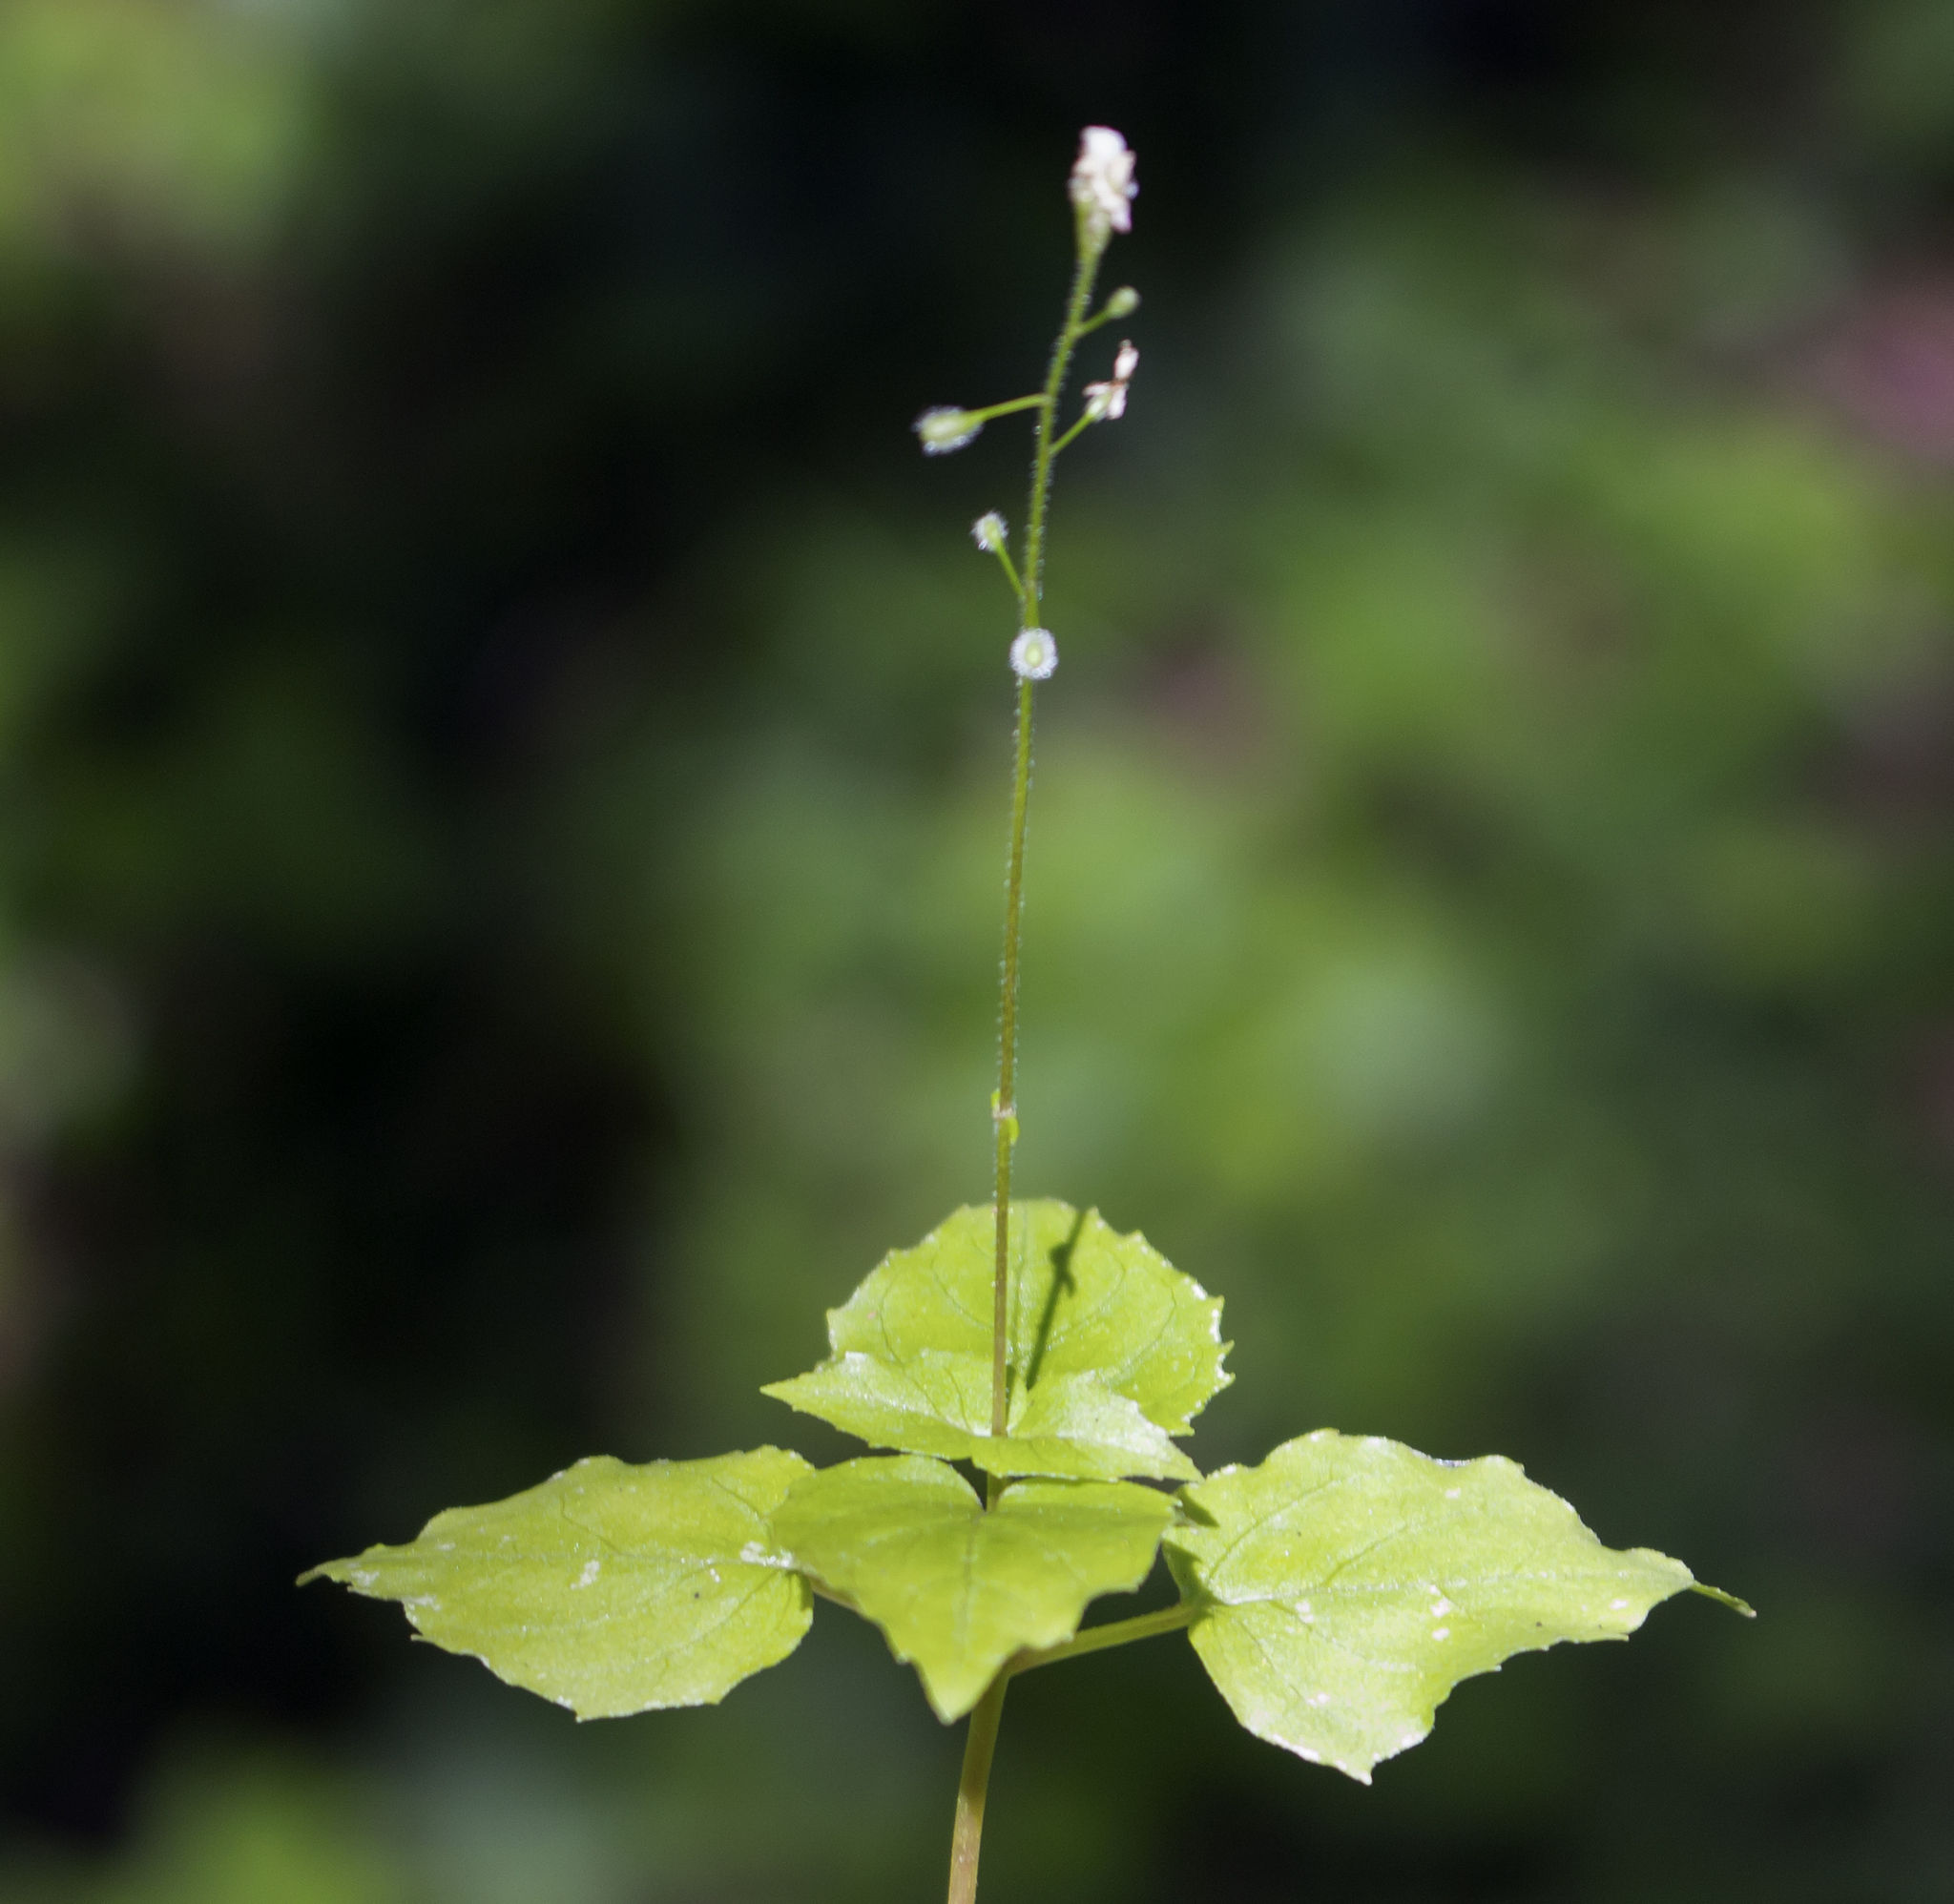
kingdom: Plantae
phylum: Tracheophyta
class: Magnoliopsida
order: Myrtales
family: Onagraceae
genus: Circaea
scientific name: Circaea alpina
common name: Alpine enchanter's-nightshade
